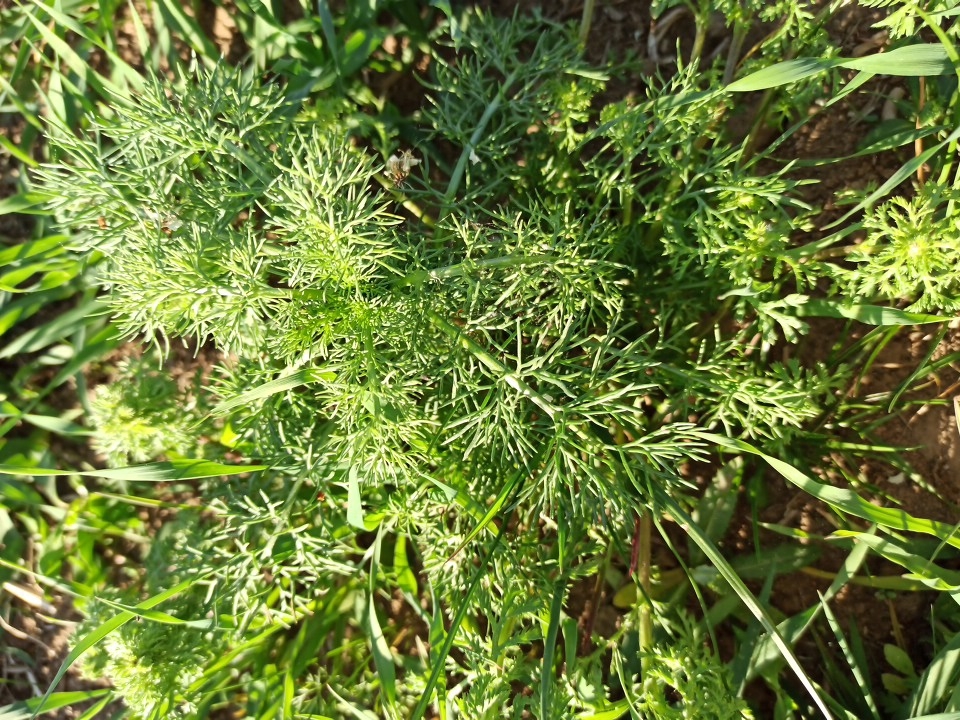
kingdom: Plantae
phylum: Tracheophyta
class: Magnoliopsida
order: Dipsacales
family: Viburnaceae
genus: Viburnum
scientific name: Viburnum lantana
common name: Wayfaring tree
